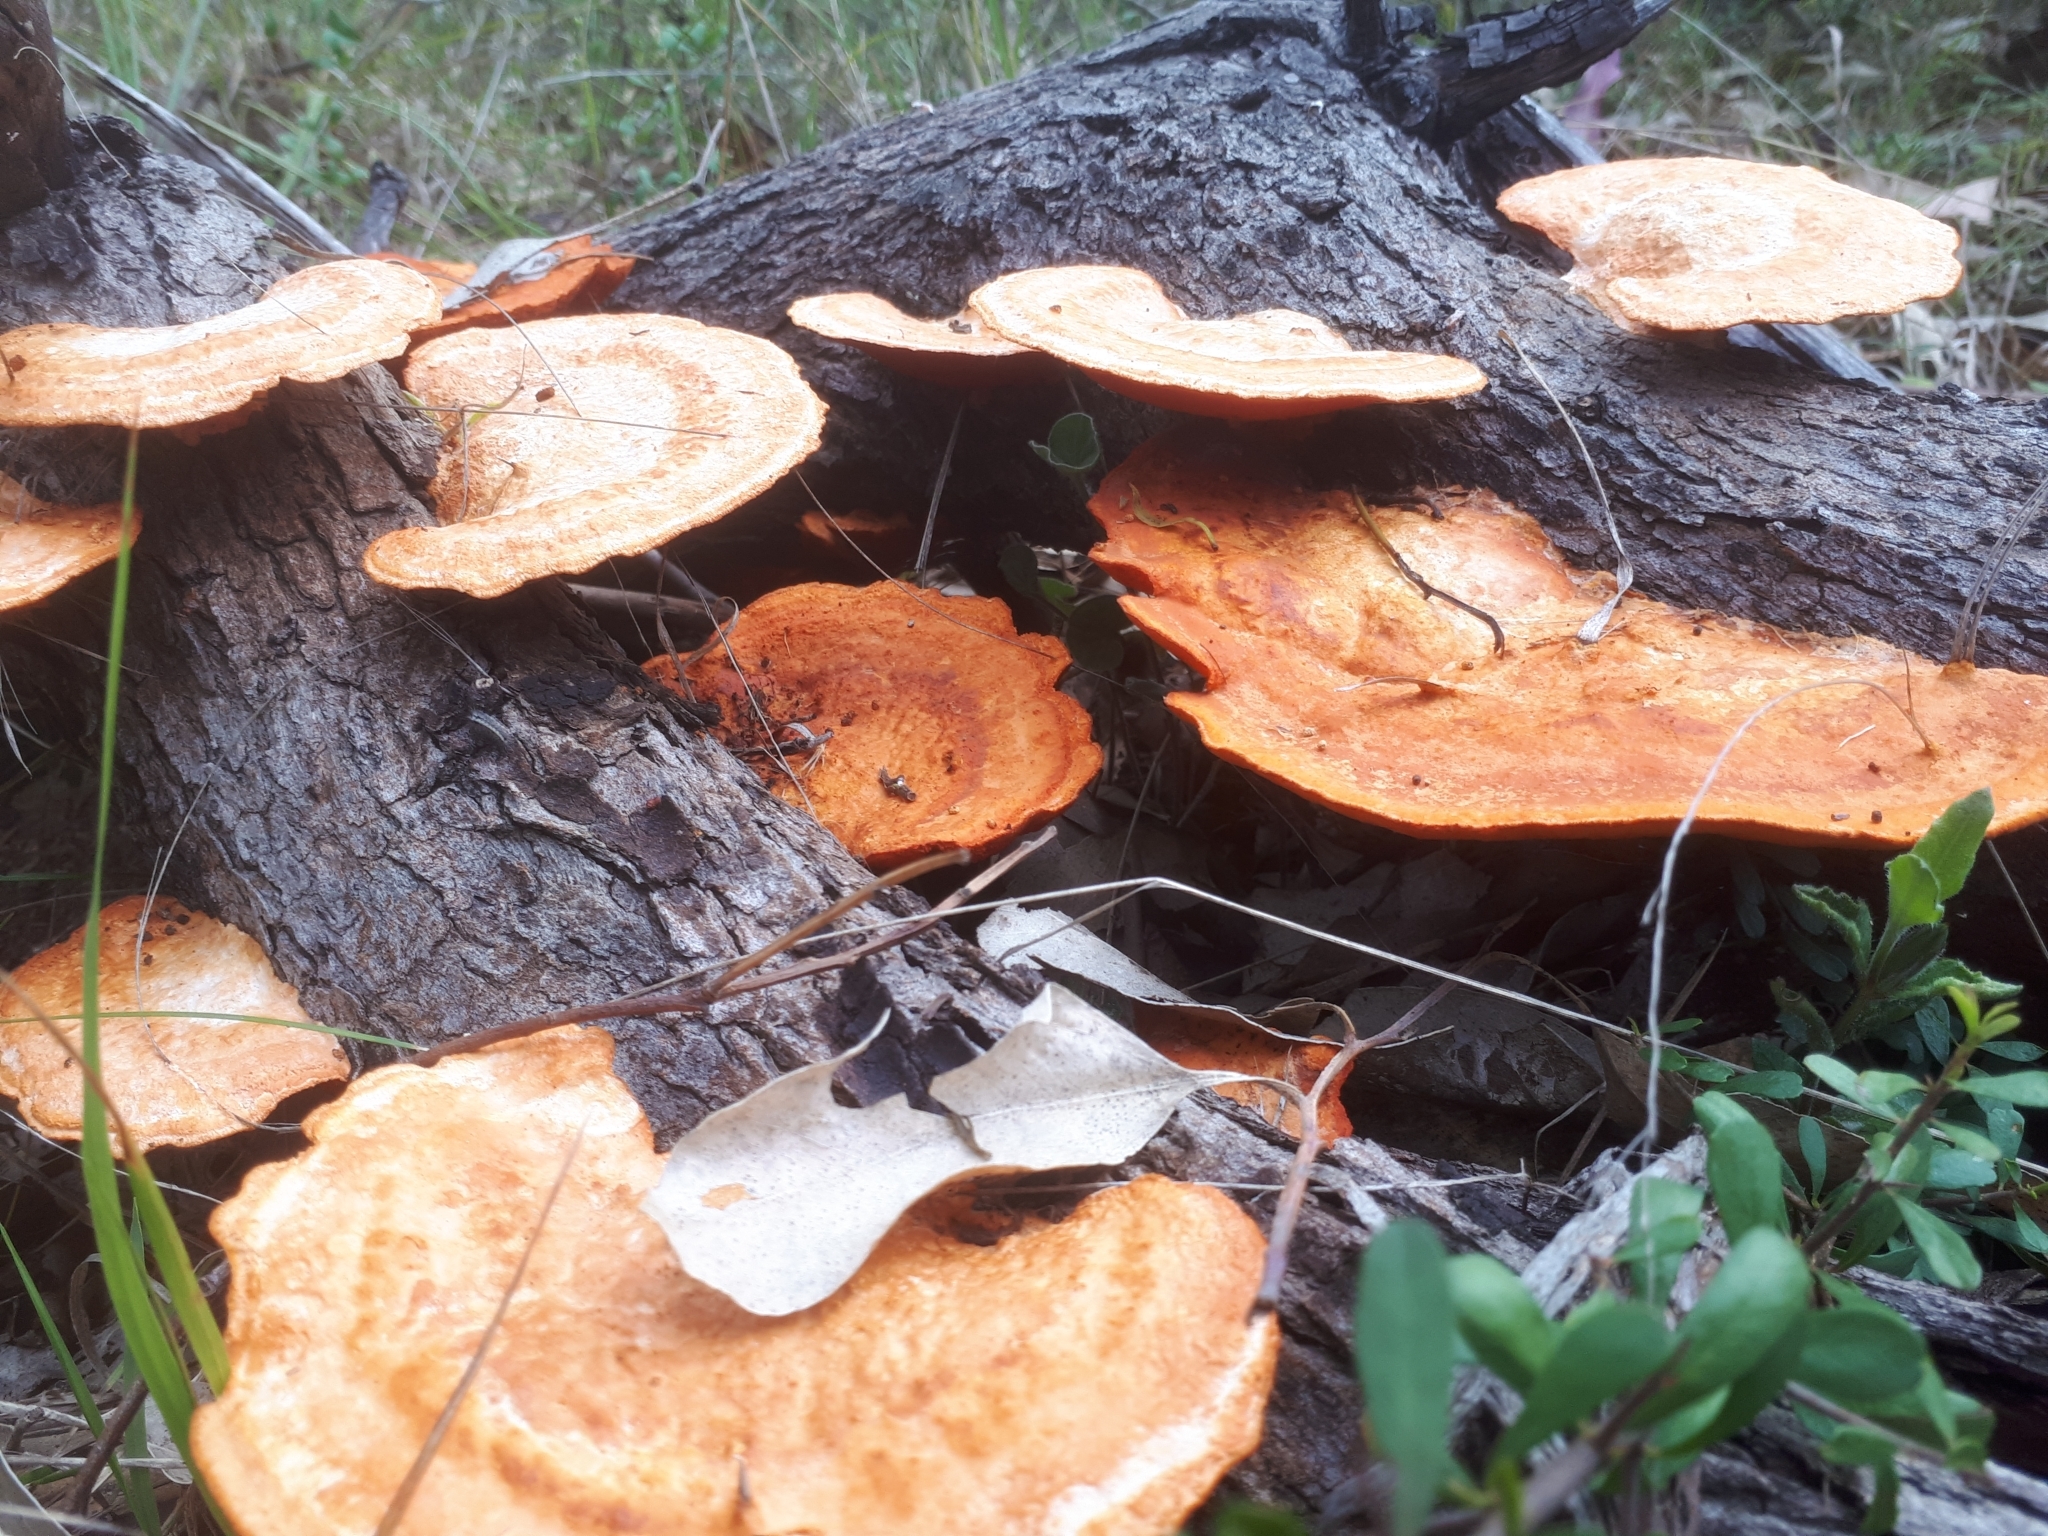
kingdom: Fungi
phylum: Basidiomycota
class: Agaricomycetes
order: Polyporales
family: Polyporaceae
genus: Trametes
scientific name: Trametes coccinea
